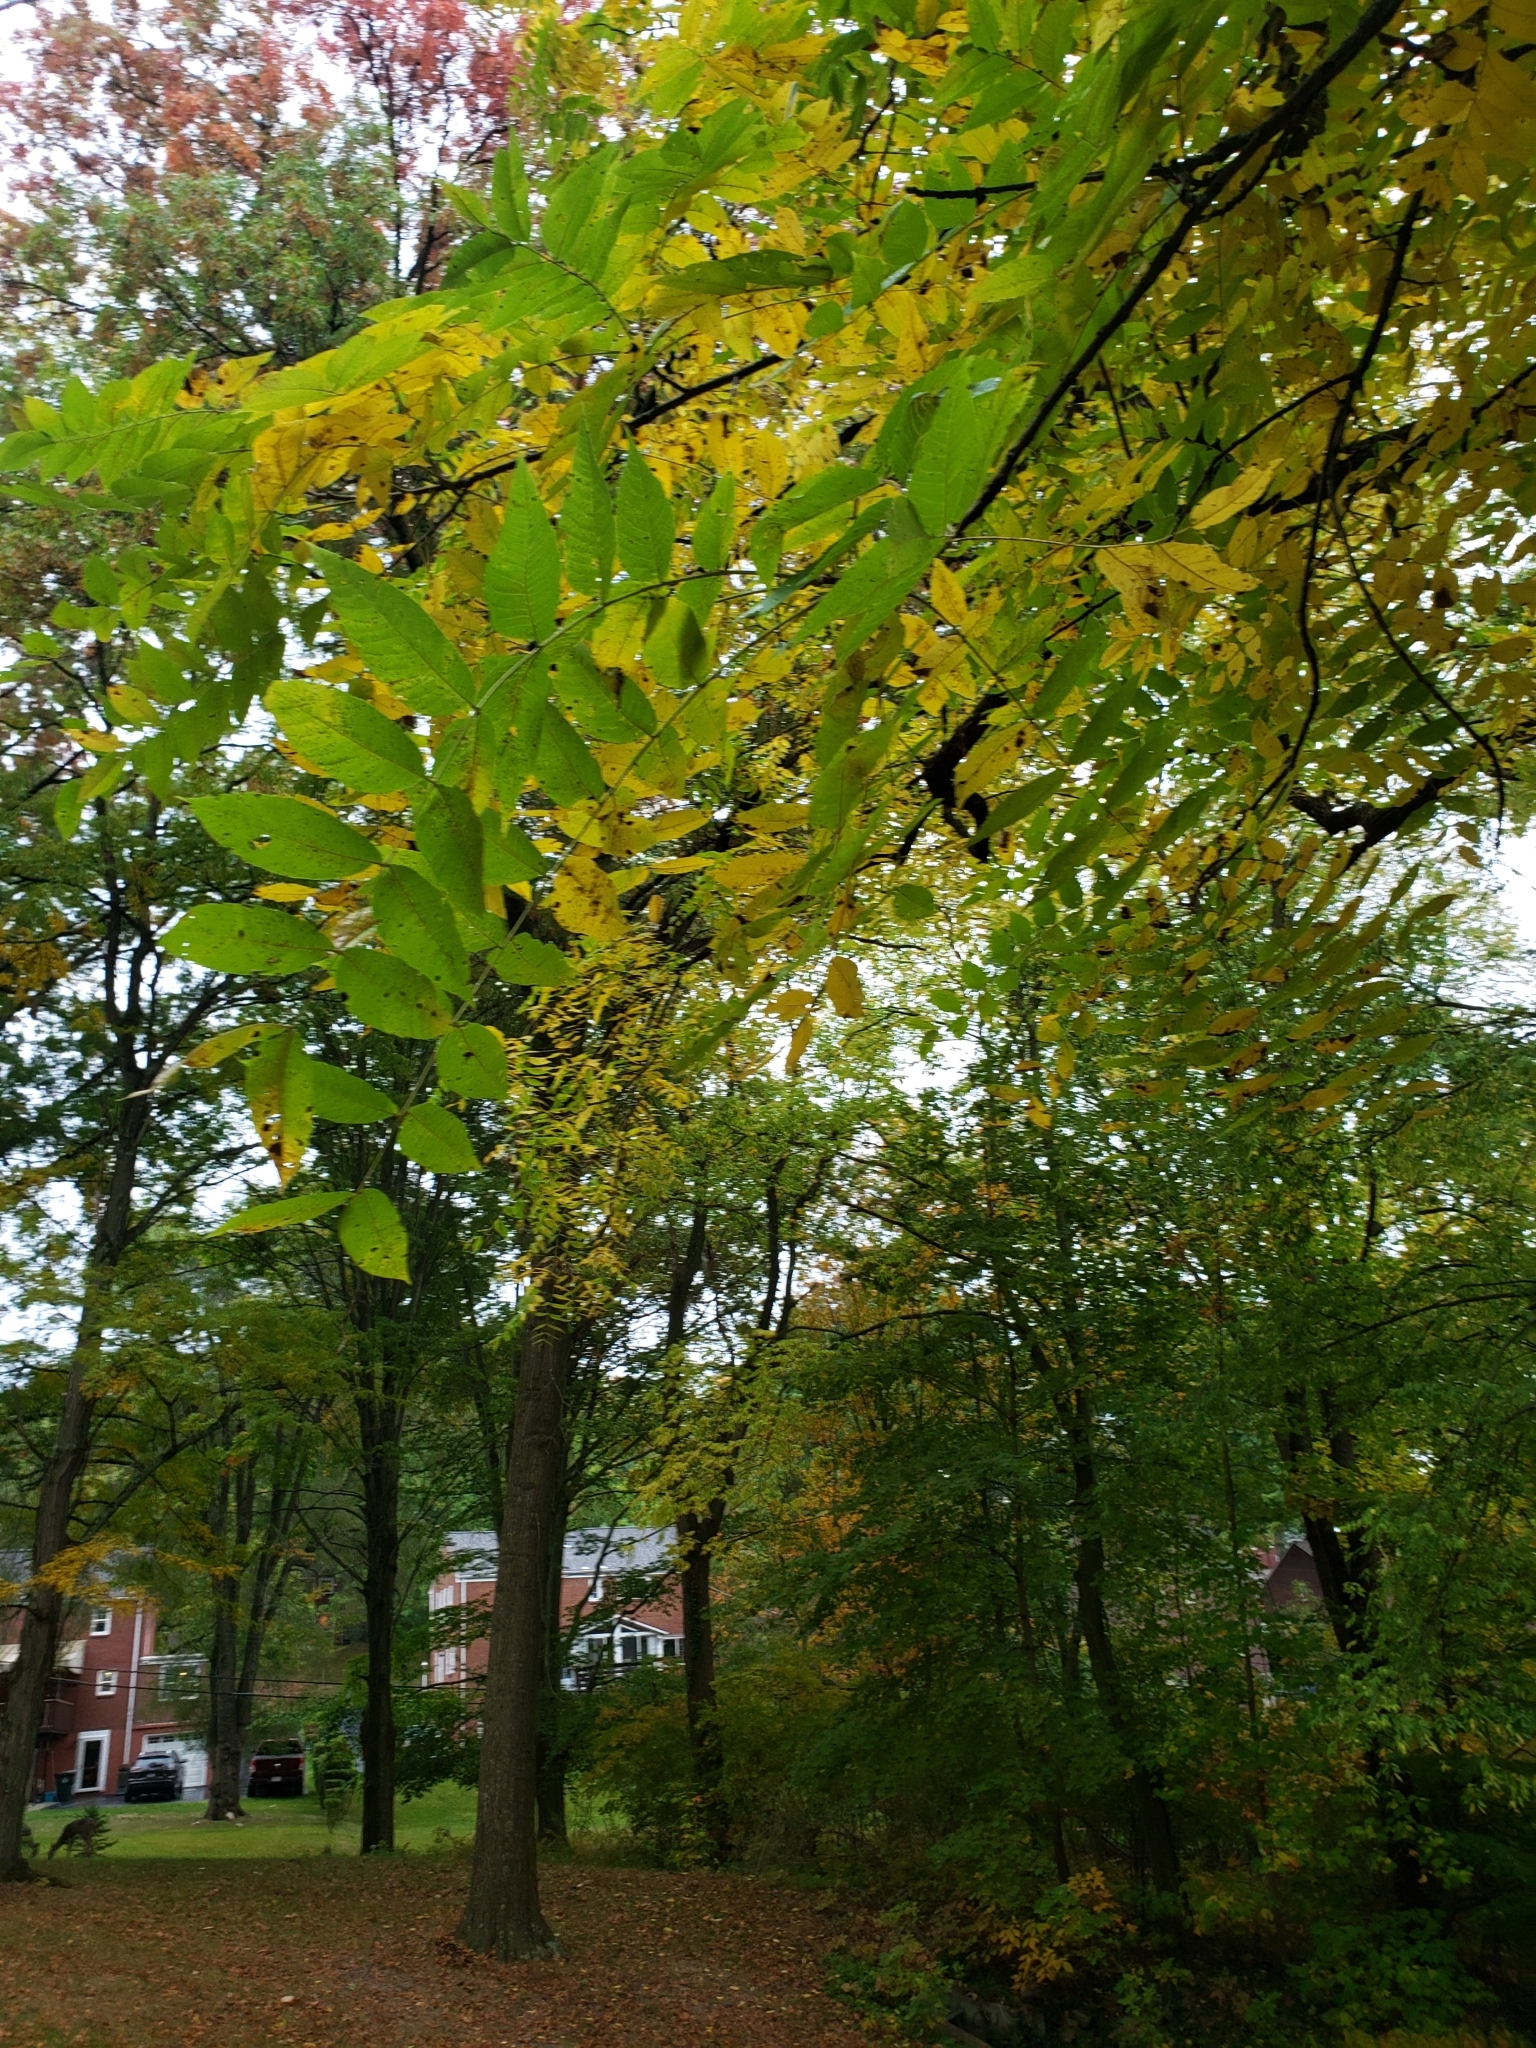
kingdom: Plantae
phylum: Tracheophyta
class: Magnoliopsida
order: Fagales
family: Juglandaceae
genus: Juglans
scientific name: Juglans nigra
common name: Black walnut
